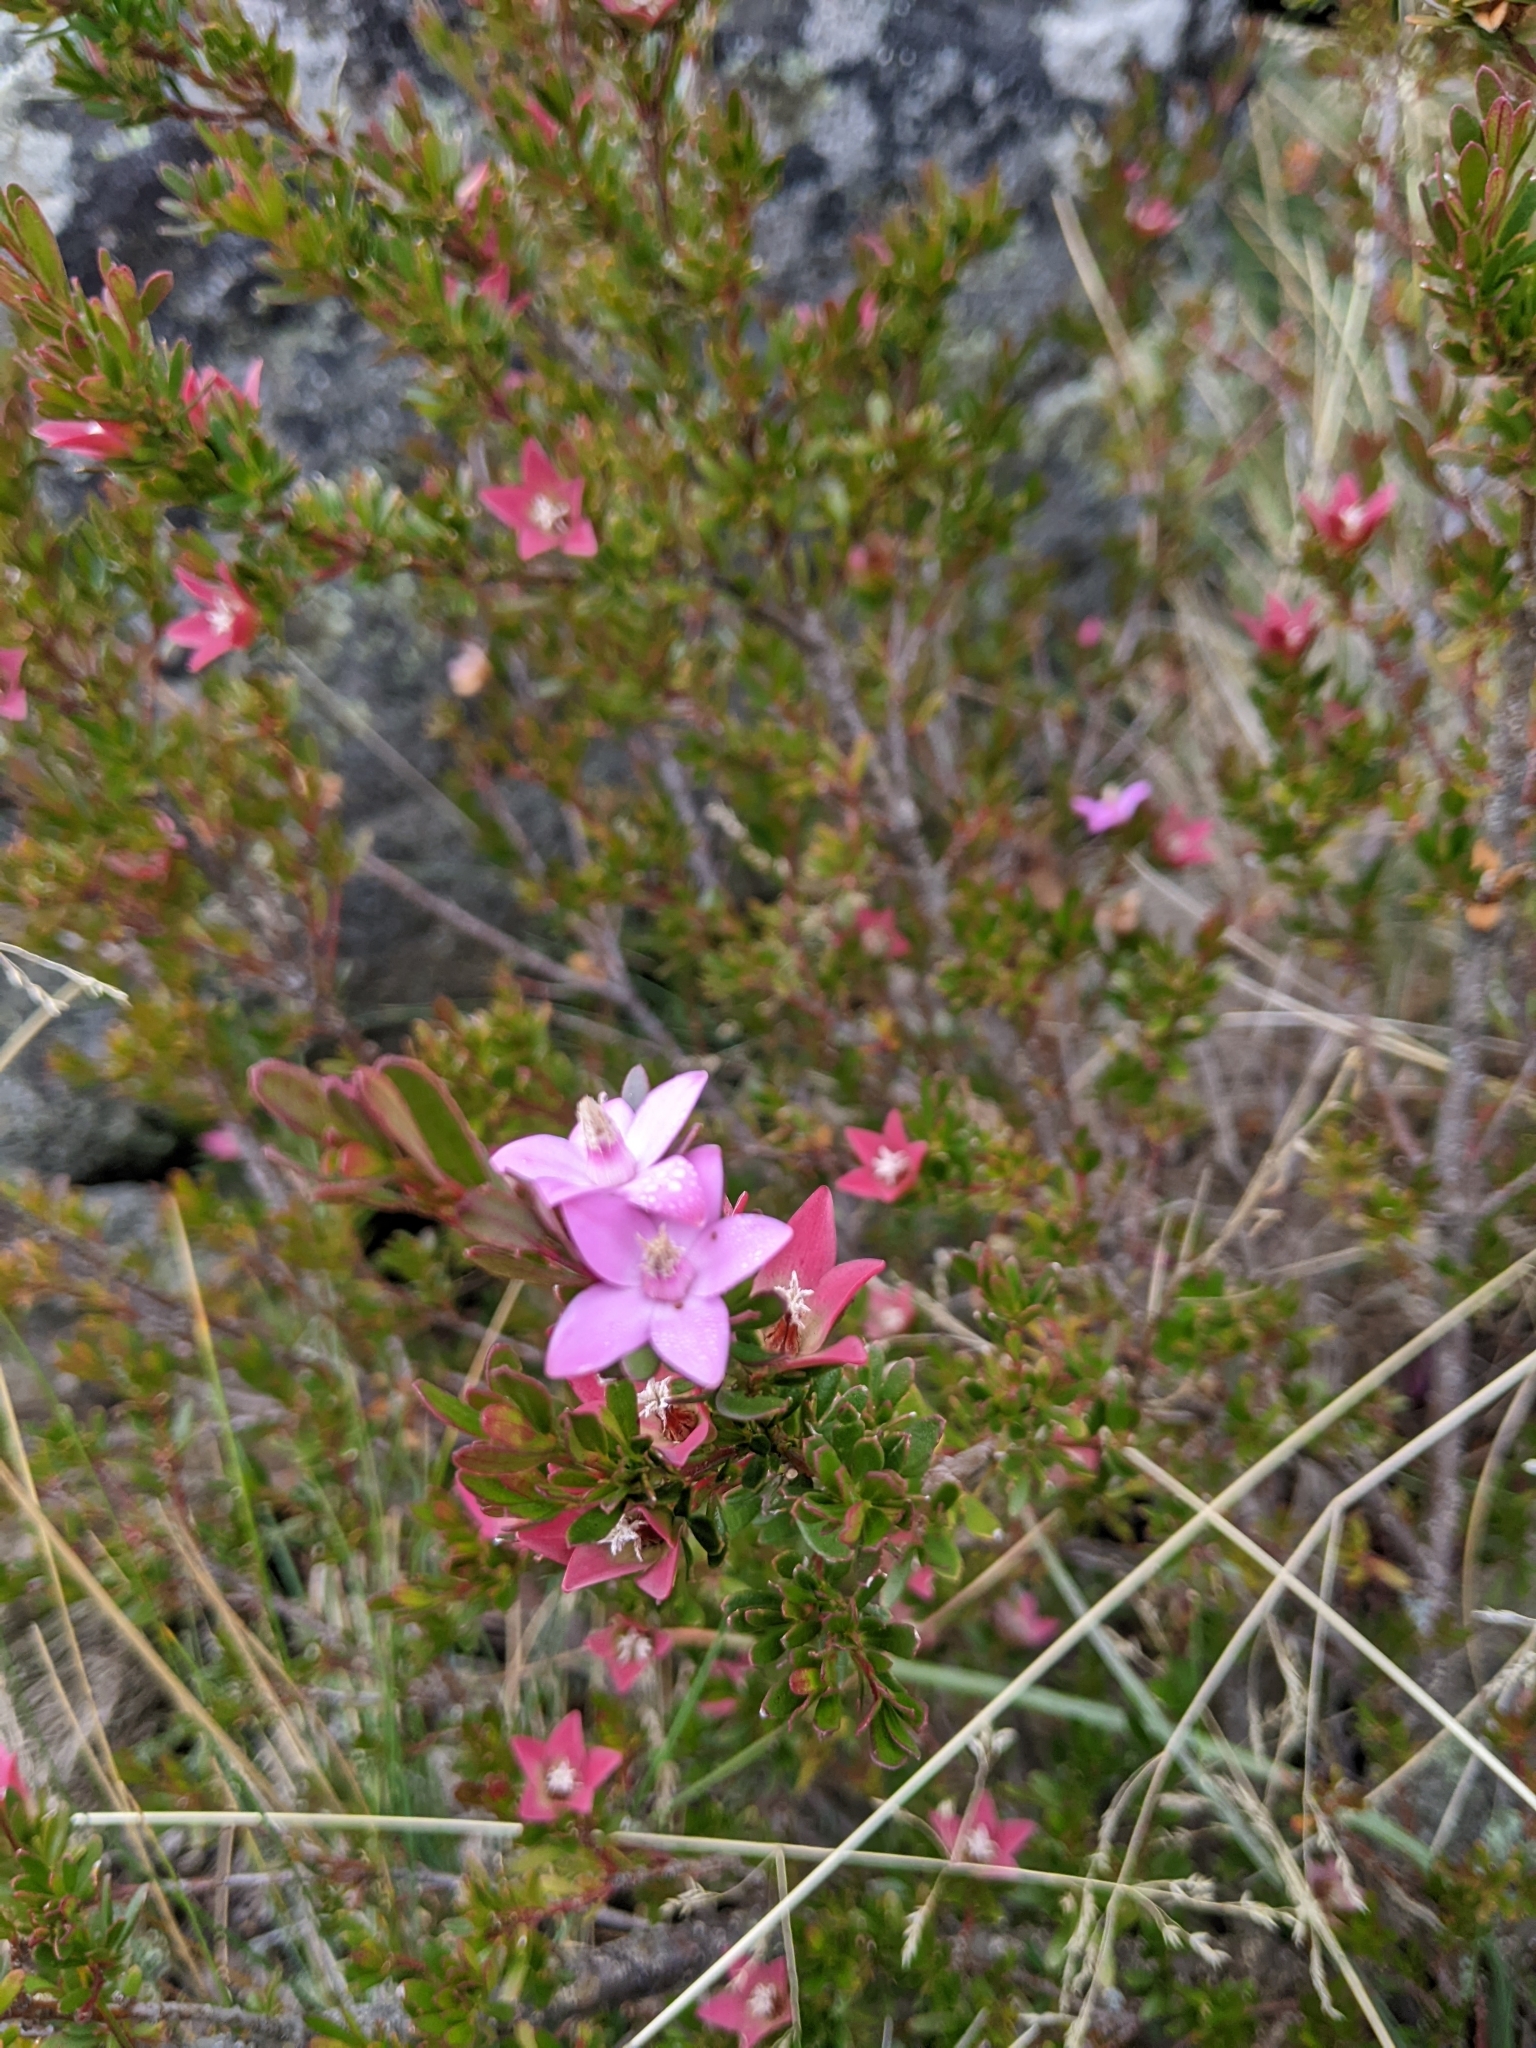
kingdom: Plantae
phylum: Tracheophyta
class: Magnoliopsida
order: Sapindales
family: Rutaceae
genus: Crowea
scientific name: Crowea exalata
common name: Small crowea
